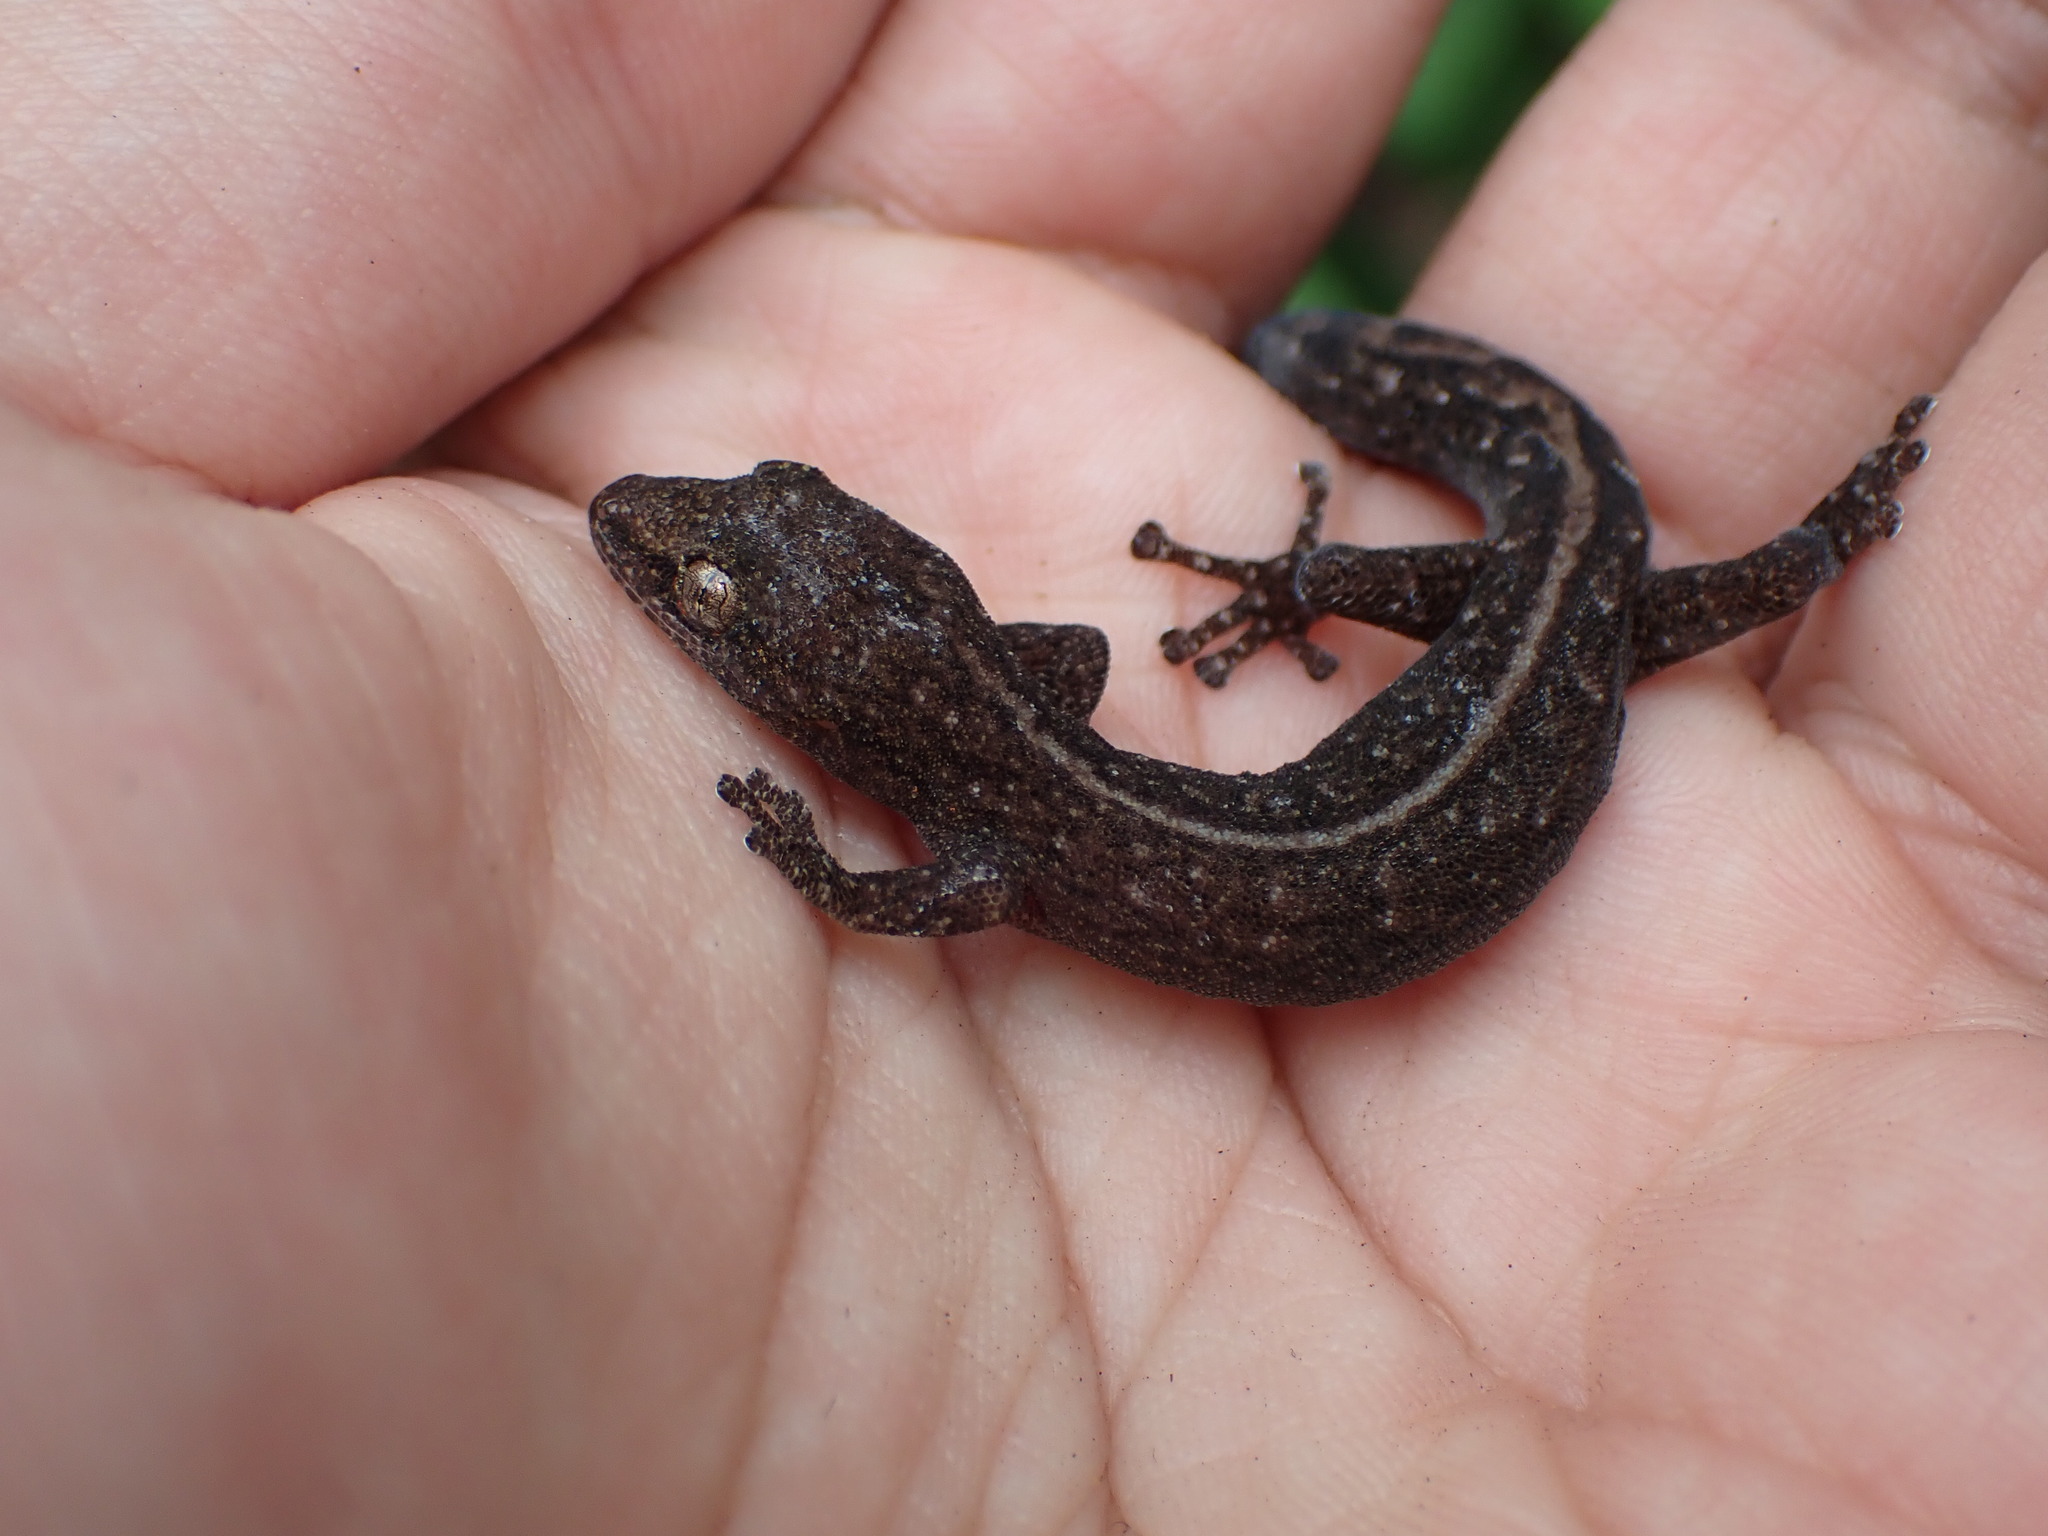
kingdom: Animalia
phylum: Chordata
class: Squamata
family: Gekkonidae
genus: Afrogecko
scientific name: Afrogecko porphyreus
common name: Marbled leaf-toed gecko
